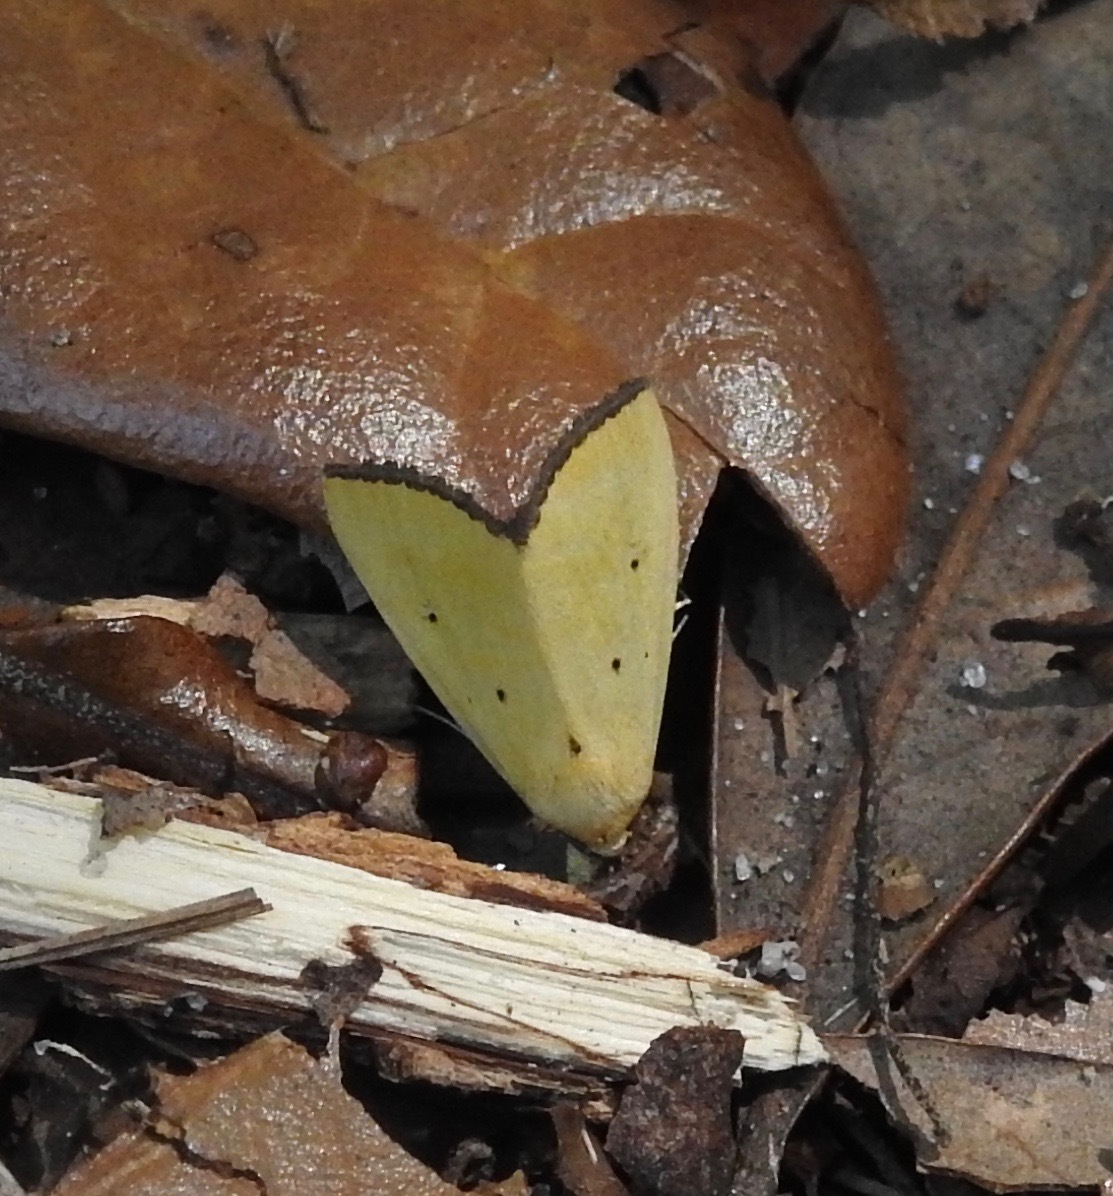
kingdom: Animalia
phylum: Arthropoda
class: Insecta
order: Lepidoptera
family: Noctuidae
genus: Marimatha
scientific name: Marimatha nigrofimbria
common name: Black-bordered lemon moth
